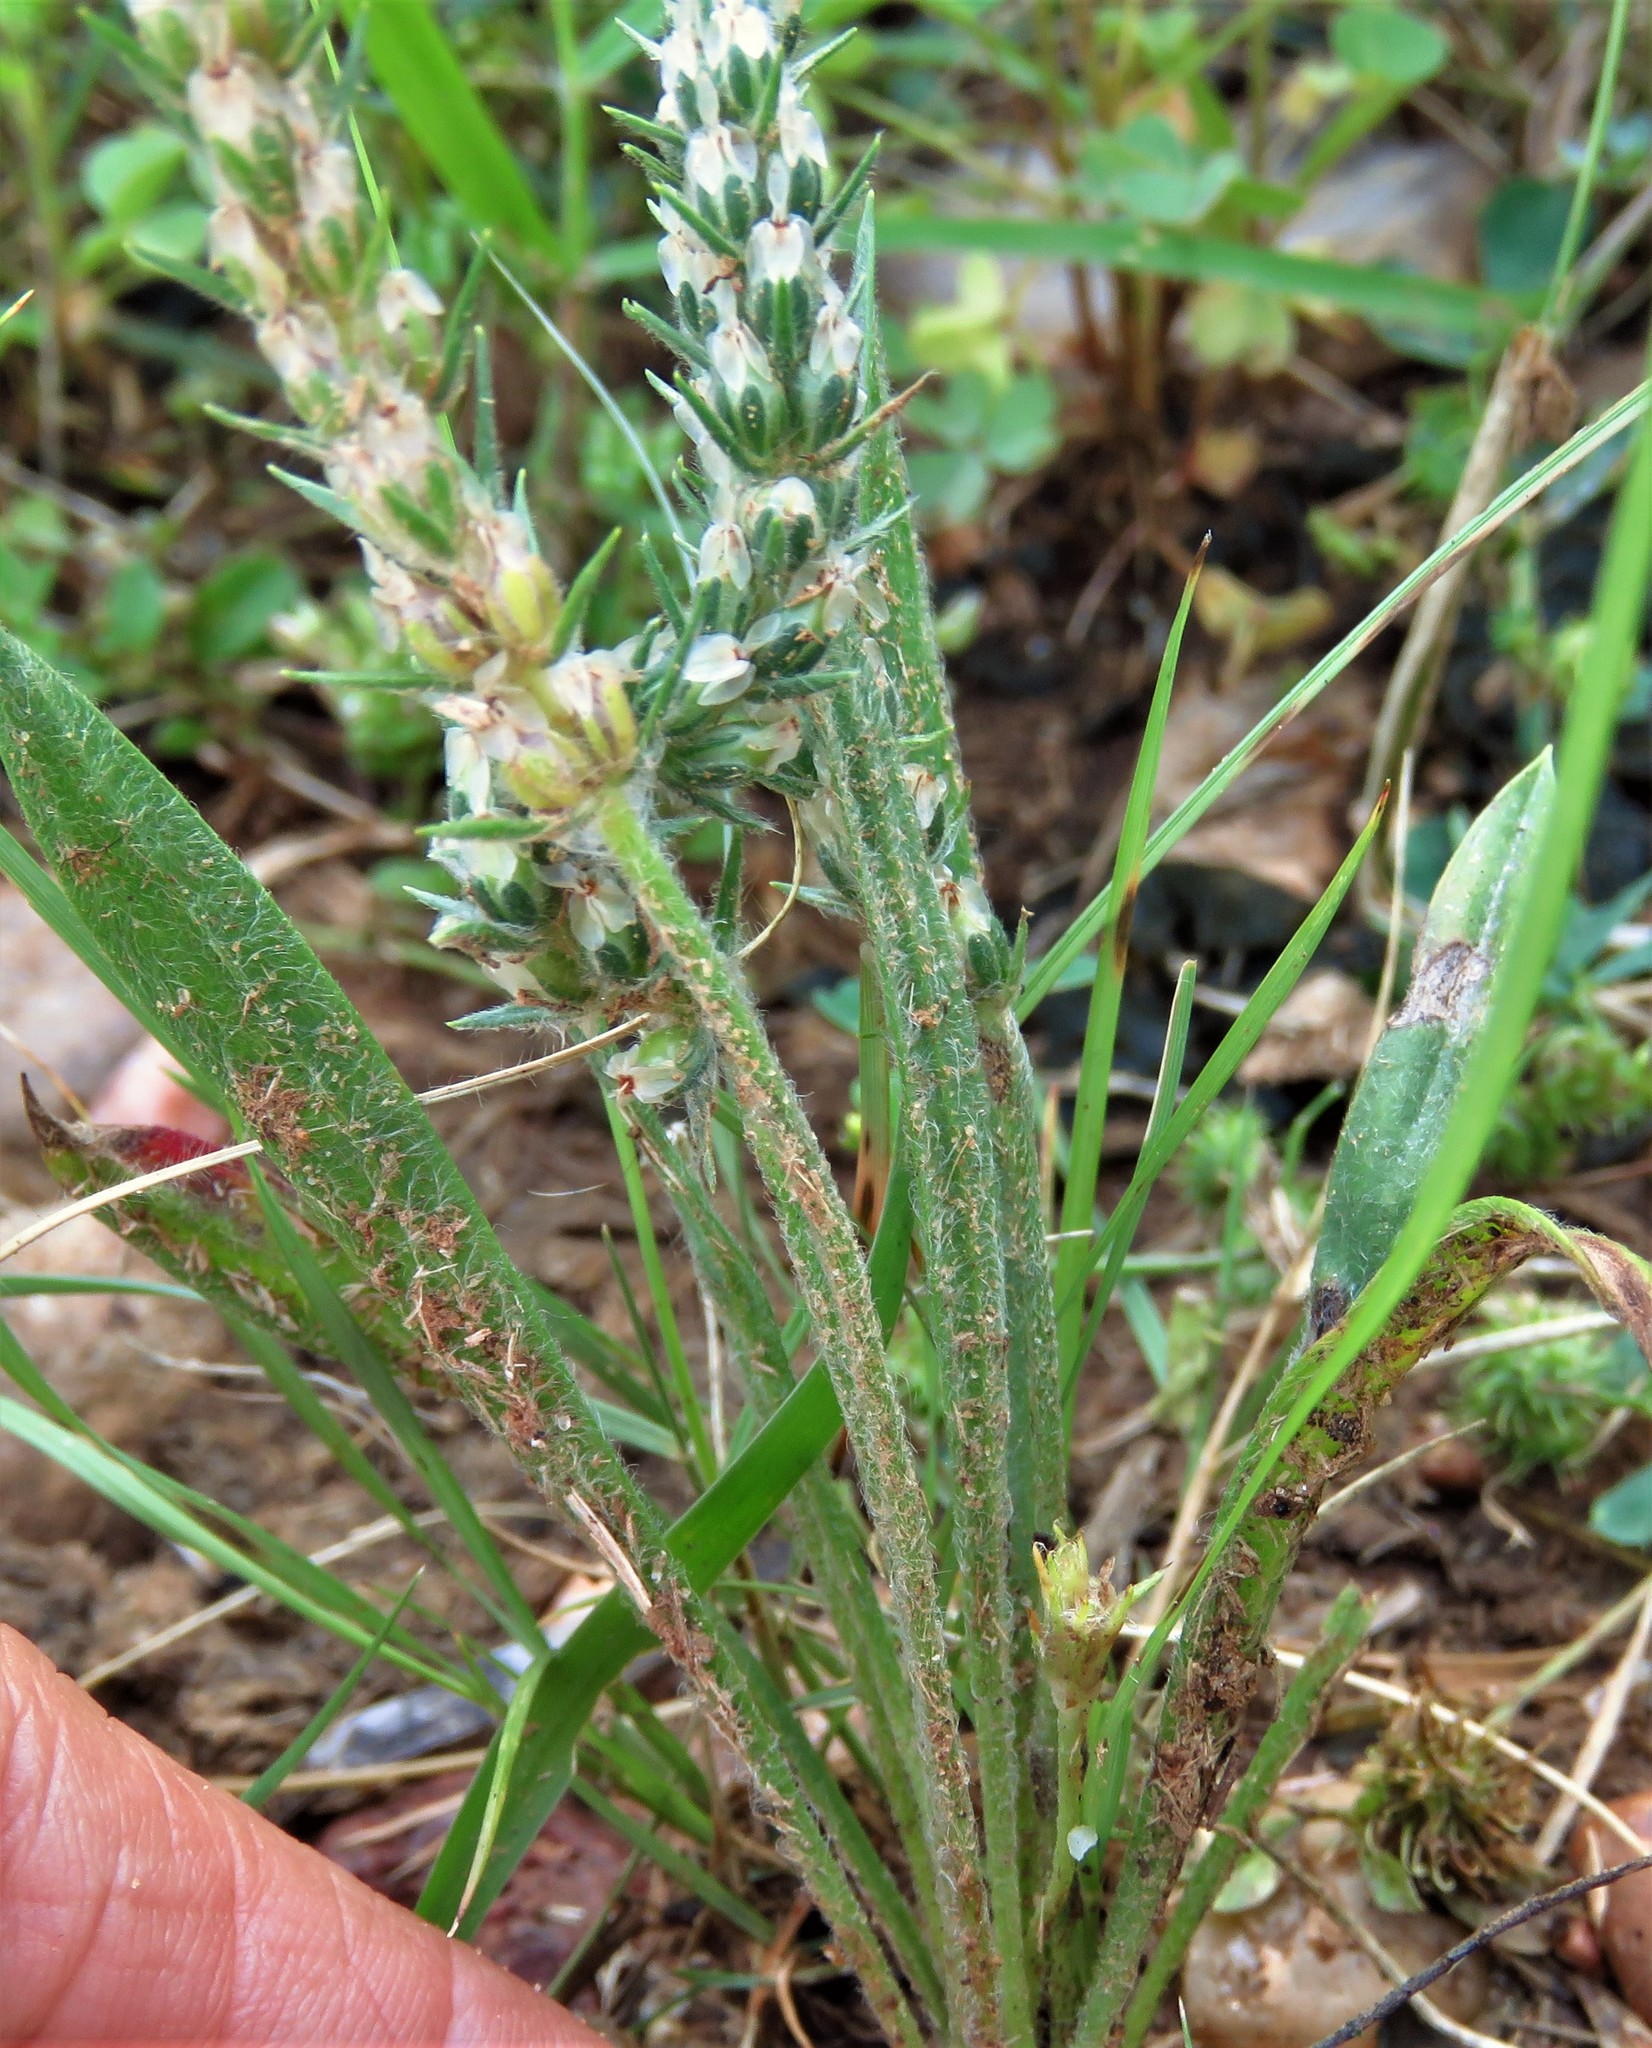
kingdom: Plantae
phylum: Tracheophyta
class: Magnoliopsida
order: Lamiales
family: Plantaginaceae
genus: Plantago
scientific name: Plantago helleri
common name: Heller's plantain
